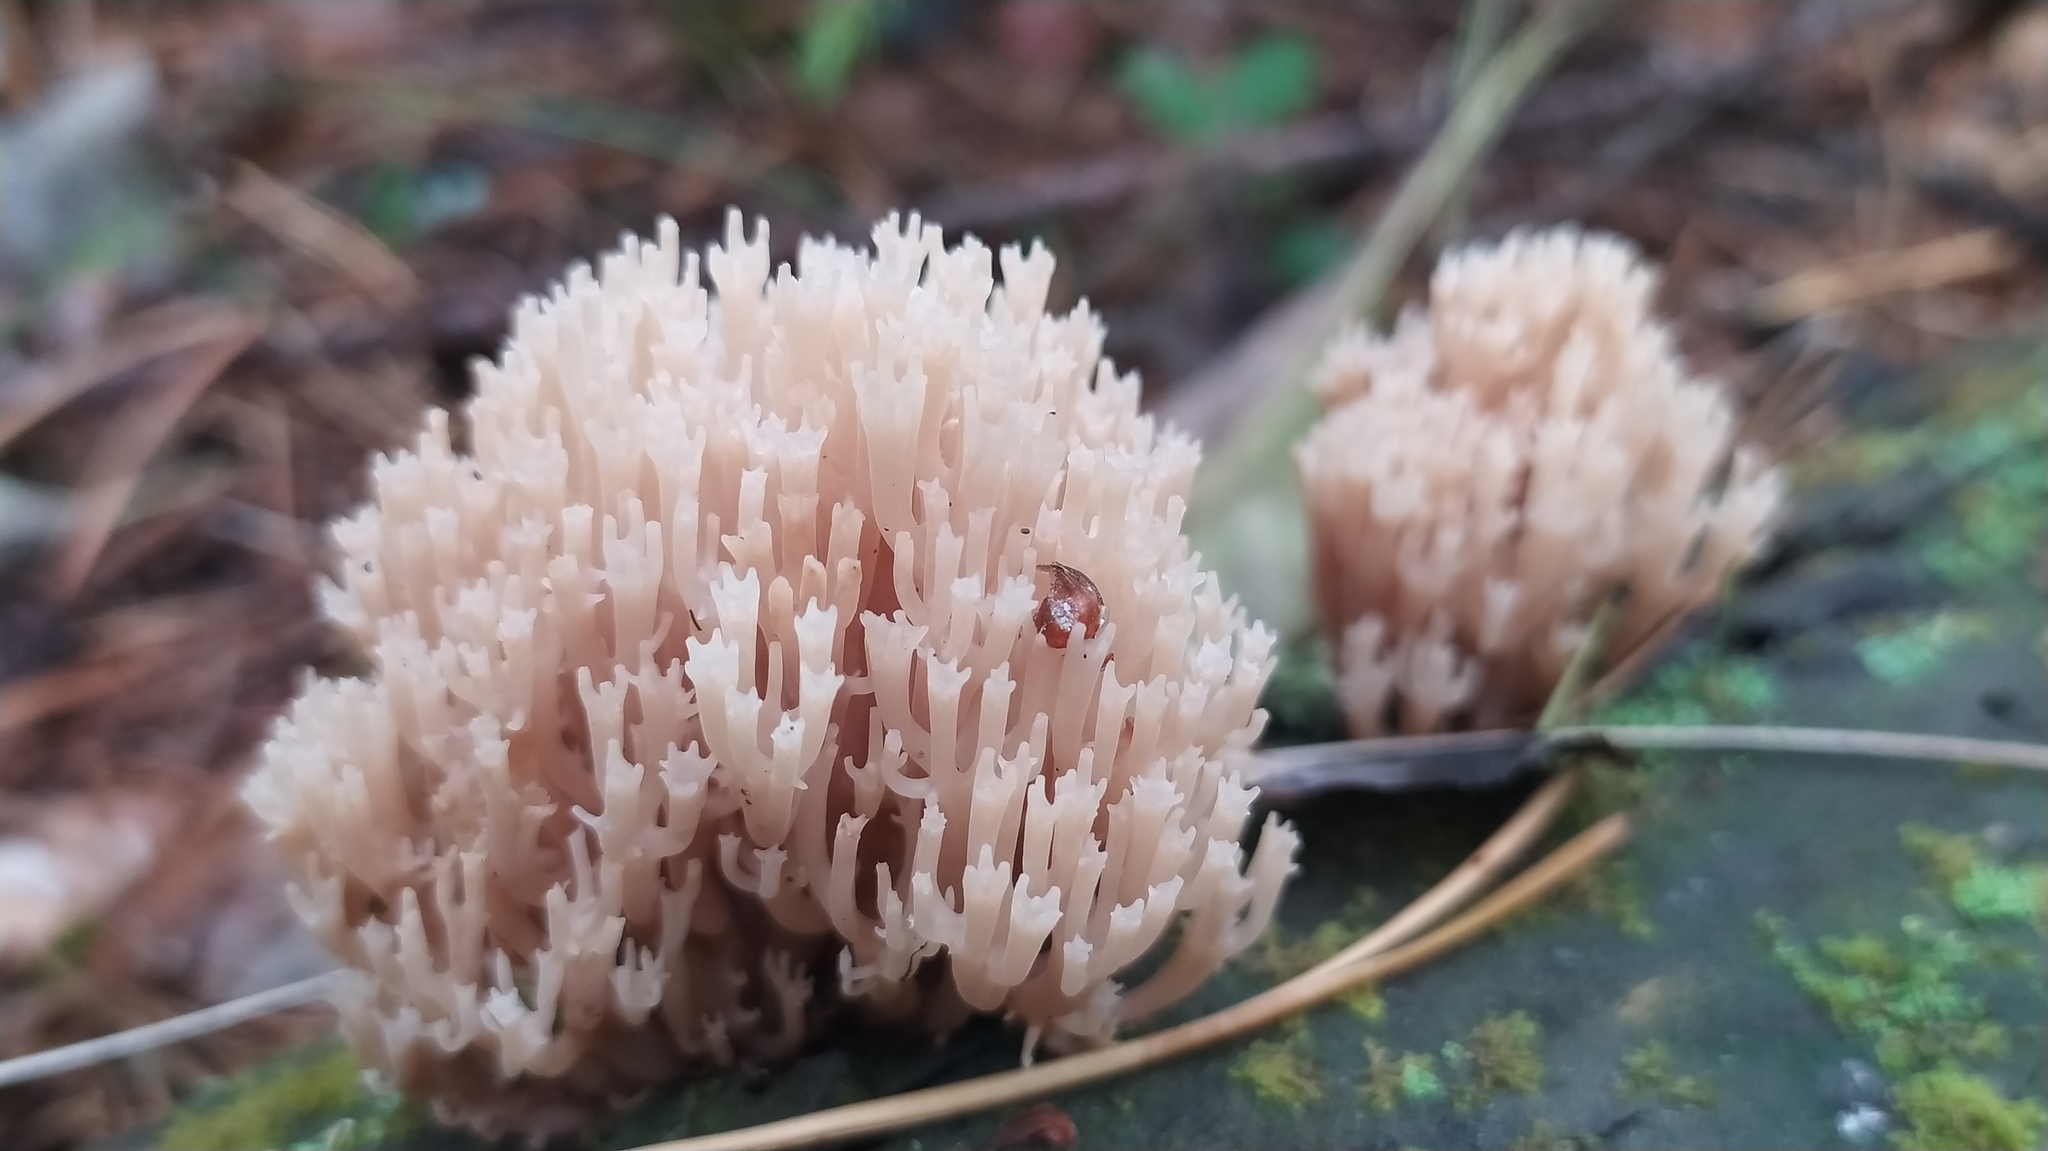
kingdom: Fungi
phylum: Basidiomycota
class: Agaricomycetes
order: Russulales
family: Auriscalpiaceae
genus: Artomyces
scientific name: Artomyces pyxidatus
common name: Crown-tipped coral fungus
